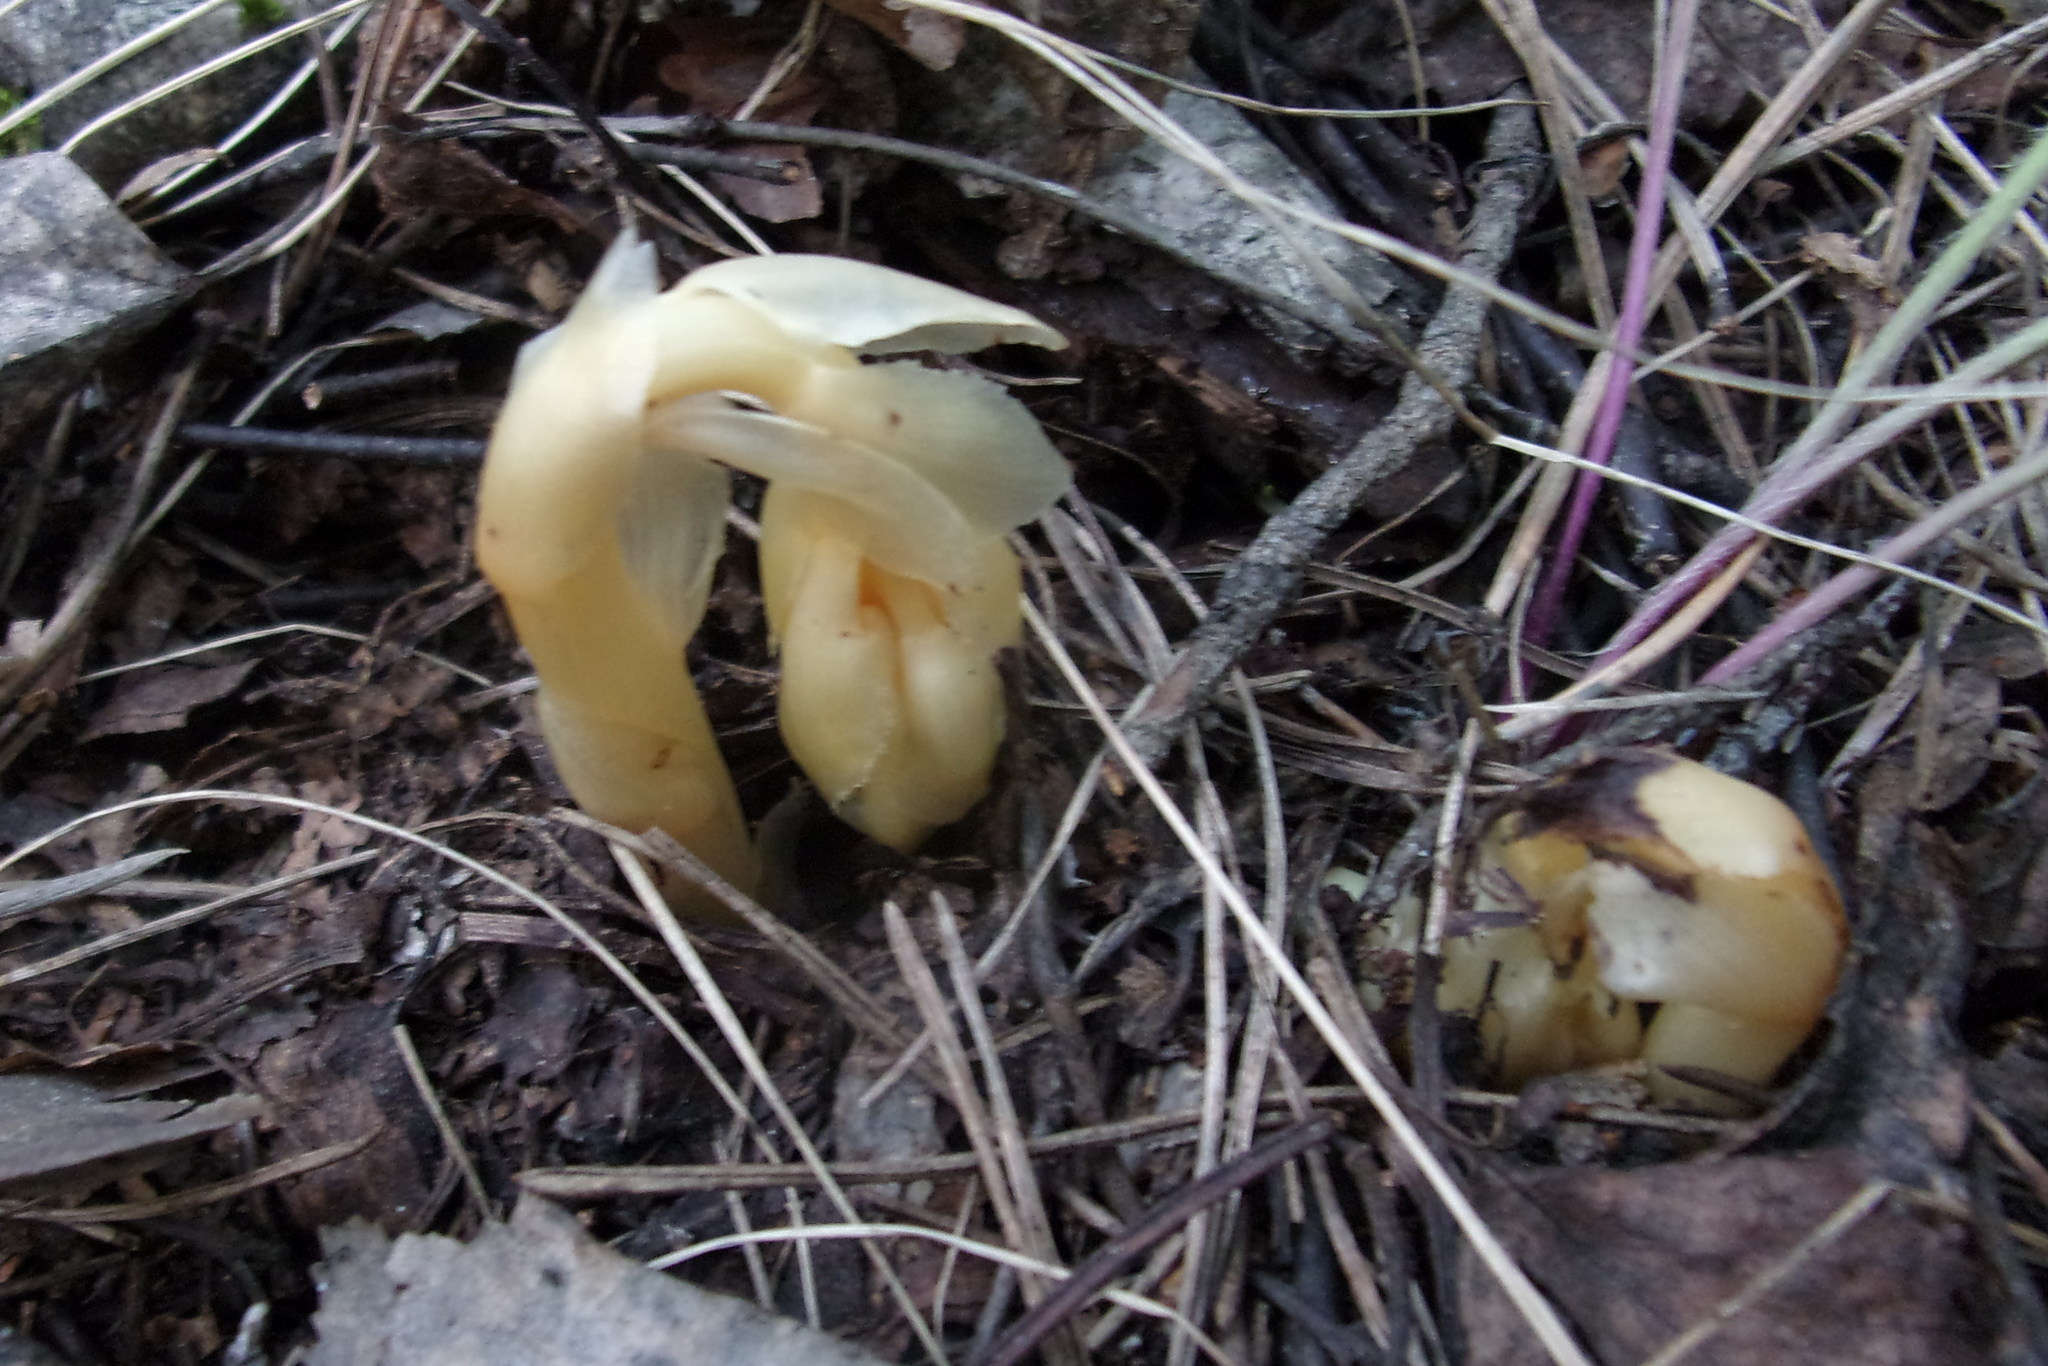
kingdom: Plantae
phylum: Tracheophyta
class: Magnoliopsida
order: Ericales
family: Ericaceae
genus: Hypopitys
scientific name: Hypopitys monotropa
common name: Yellow bird's-nest
